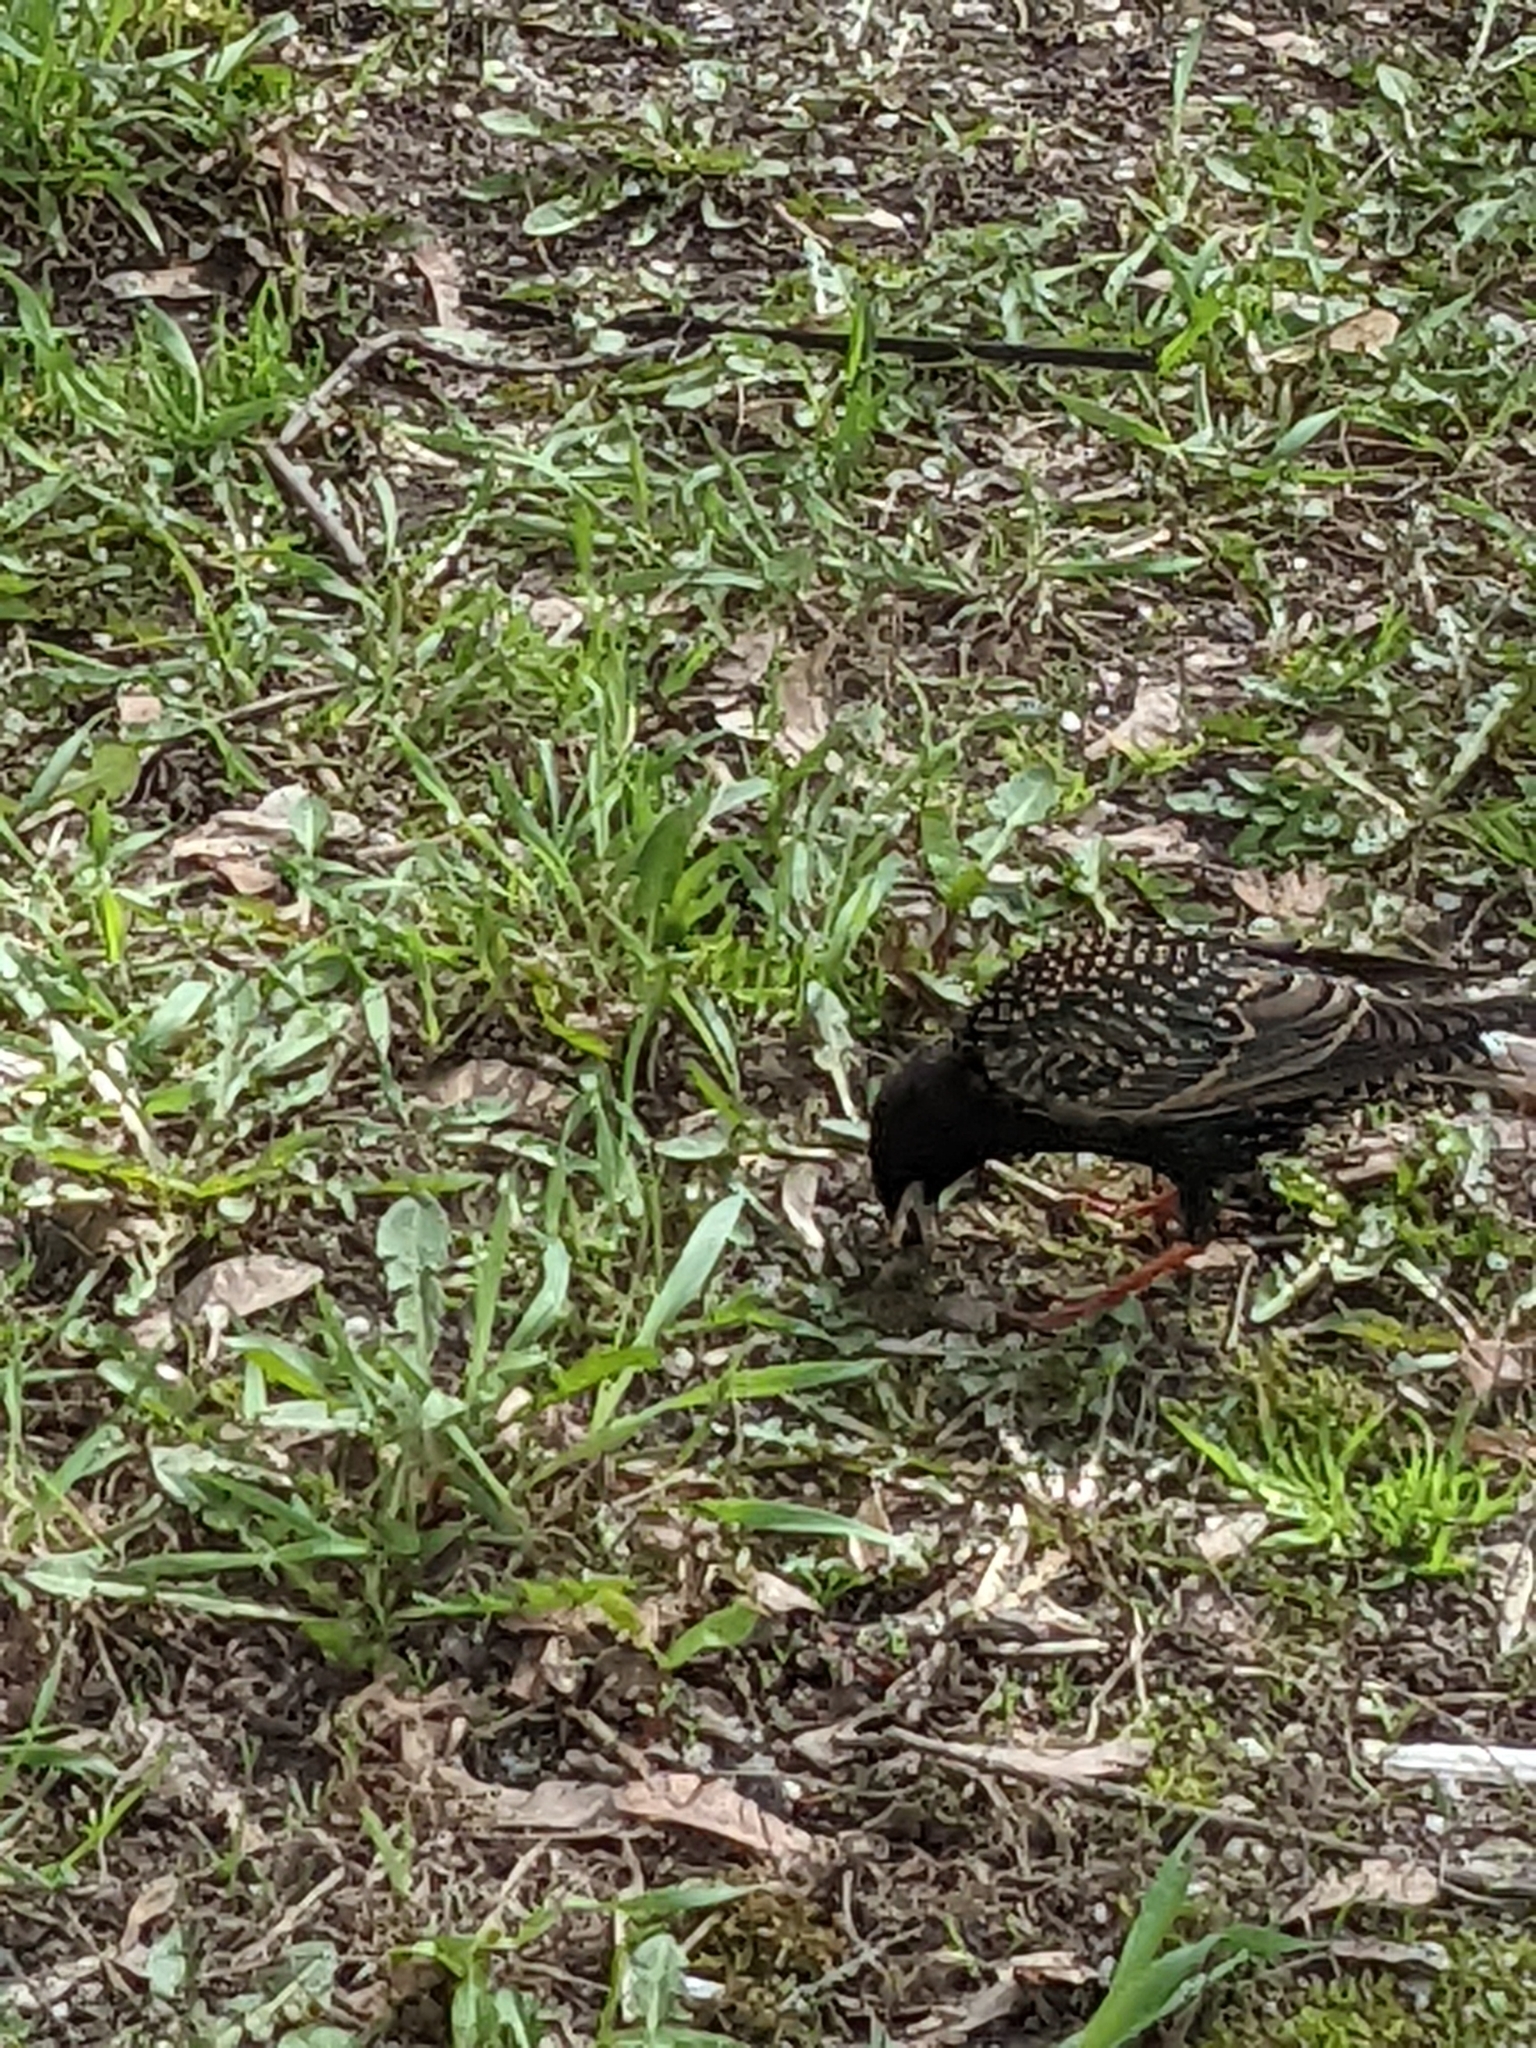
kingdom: Animalia
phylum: Chordata
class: Aves
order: Passeriformes
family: Sturnidae
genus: Sturnus
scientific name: Sturnus vulgaris
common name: Common starling
